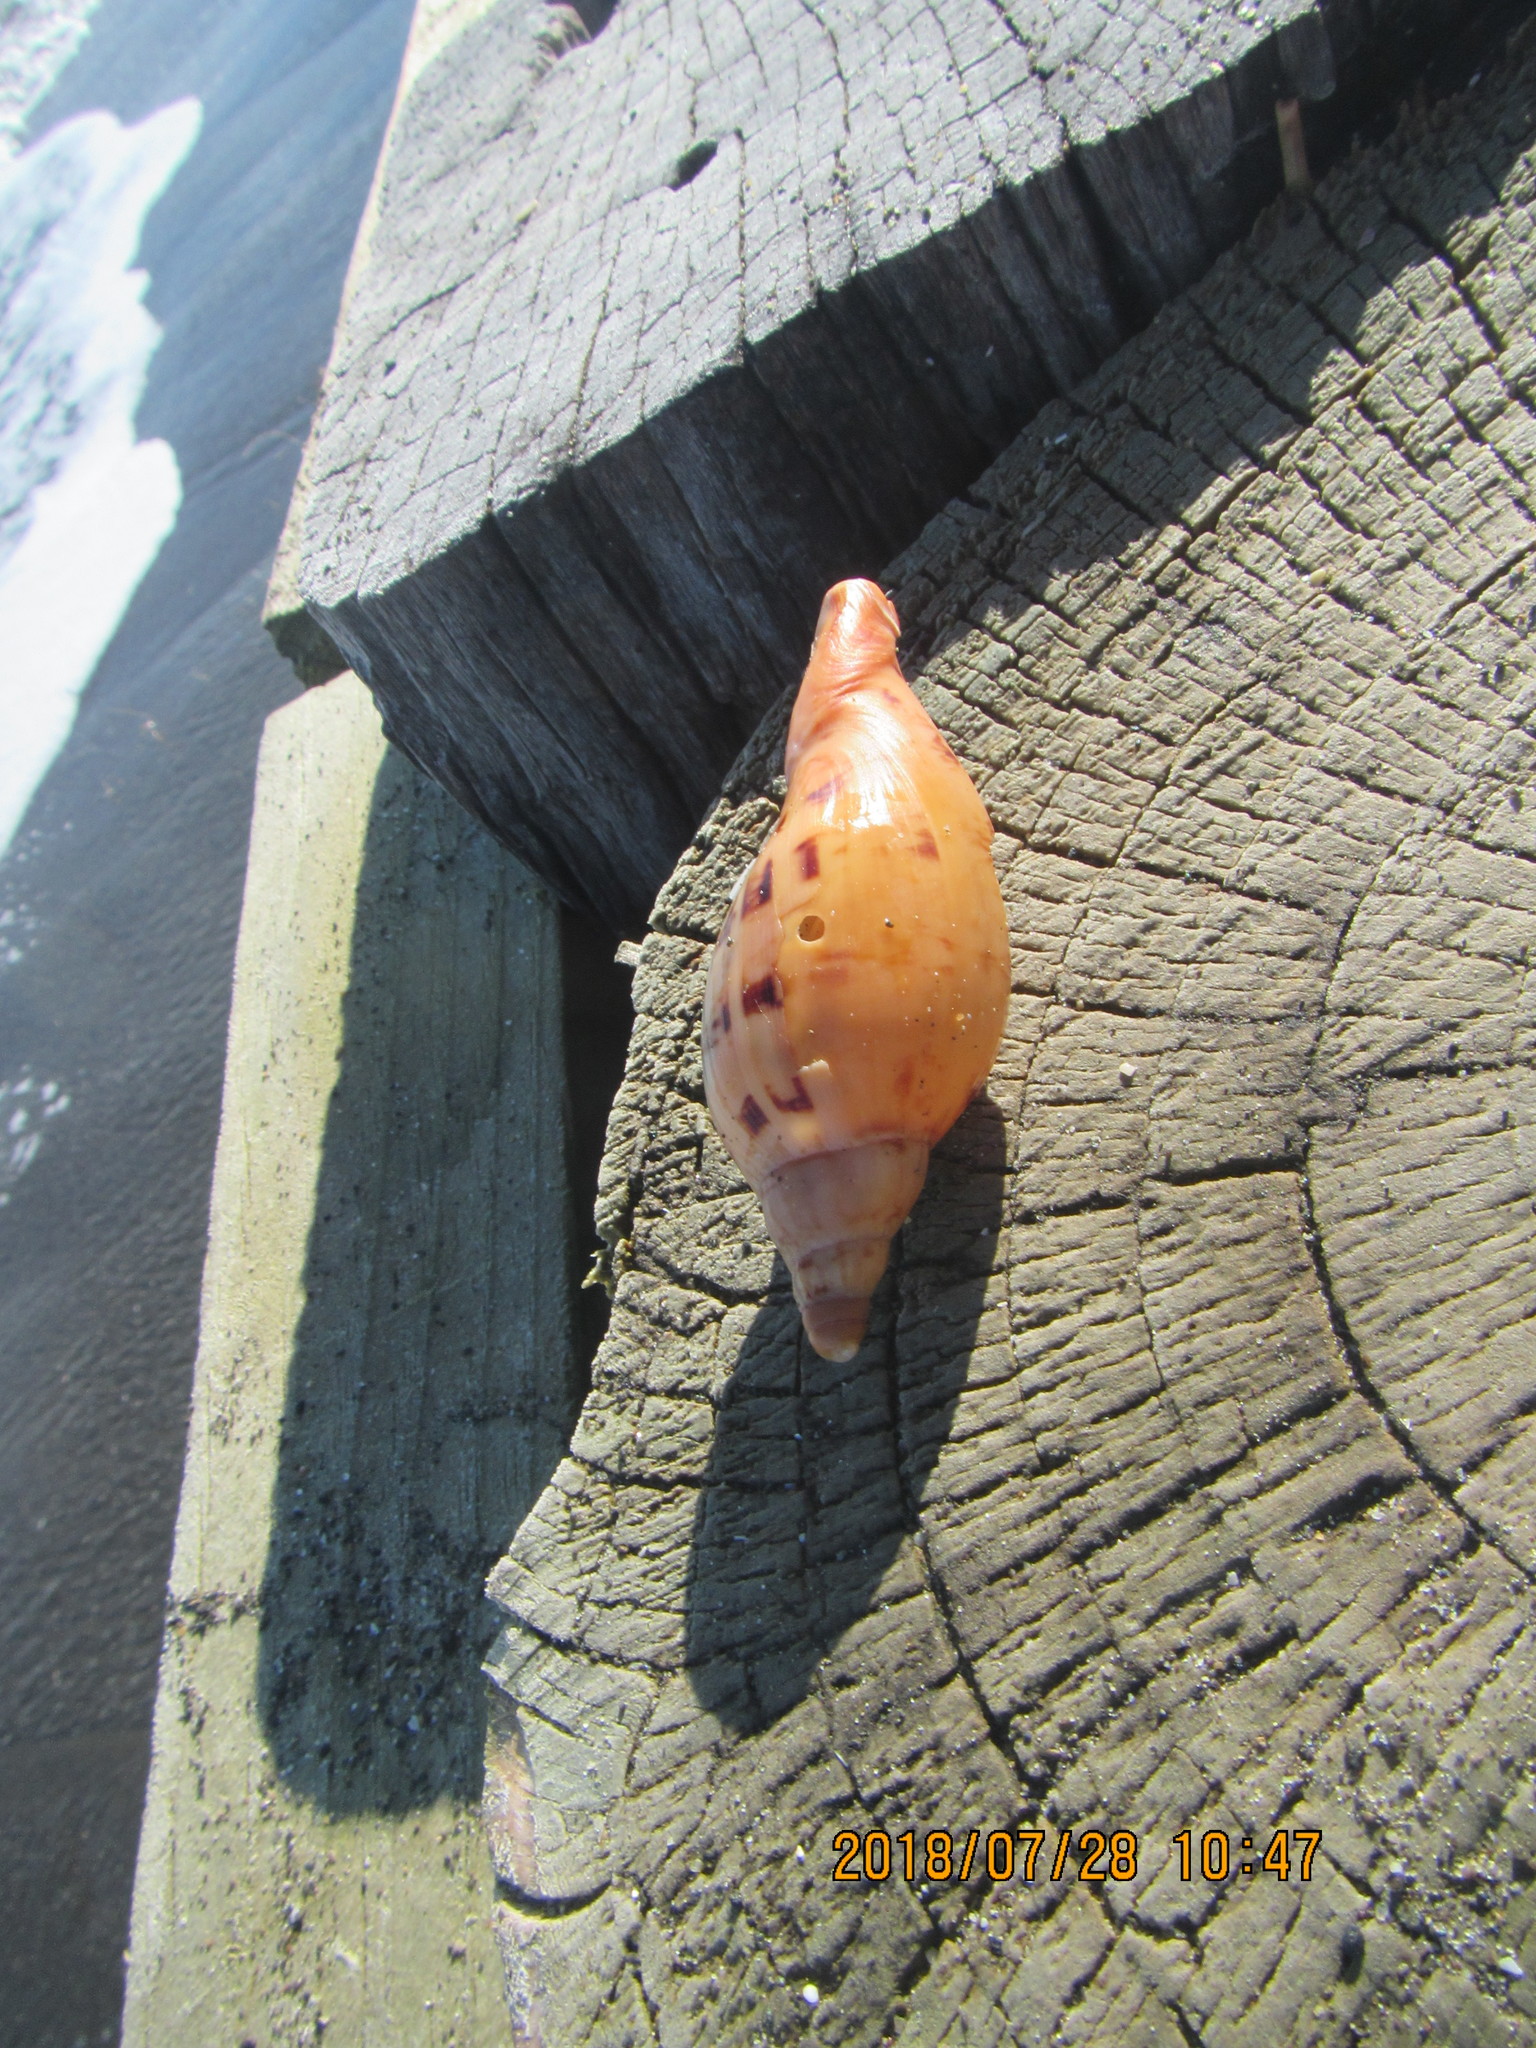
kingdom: Animalia
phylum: Mollusca
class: Gastropoda
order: Neogastropoda
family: Volutidae
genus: Alcithoe
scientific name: Alcithoe arabica
